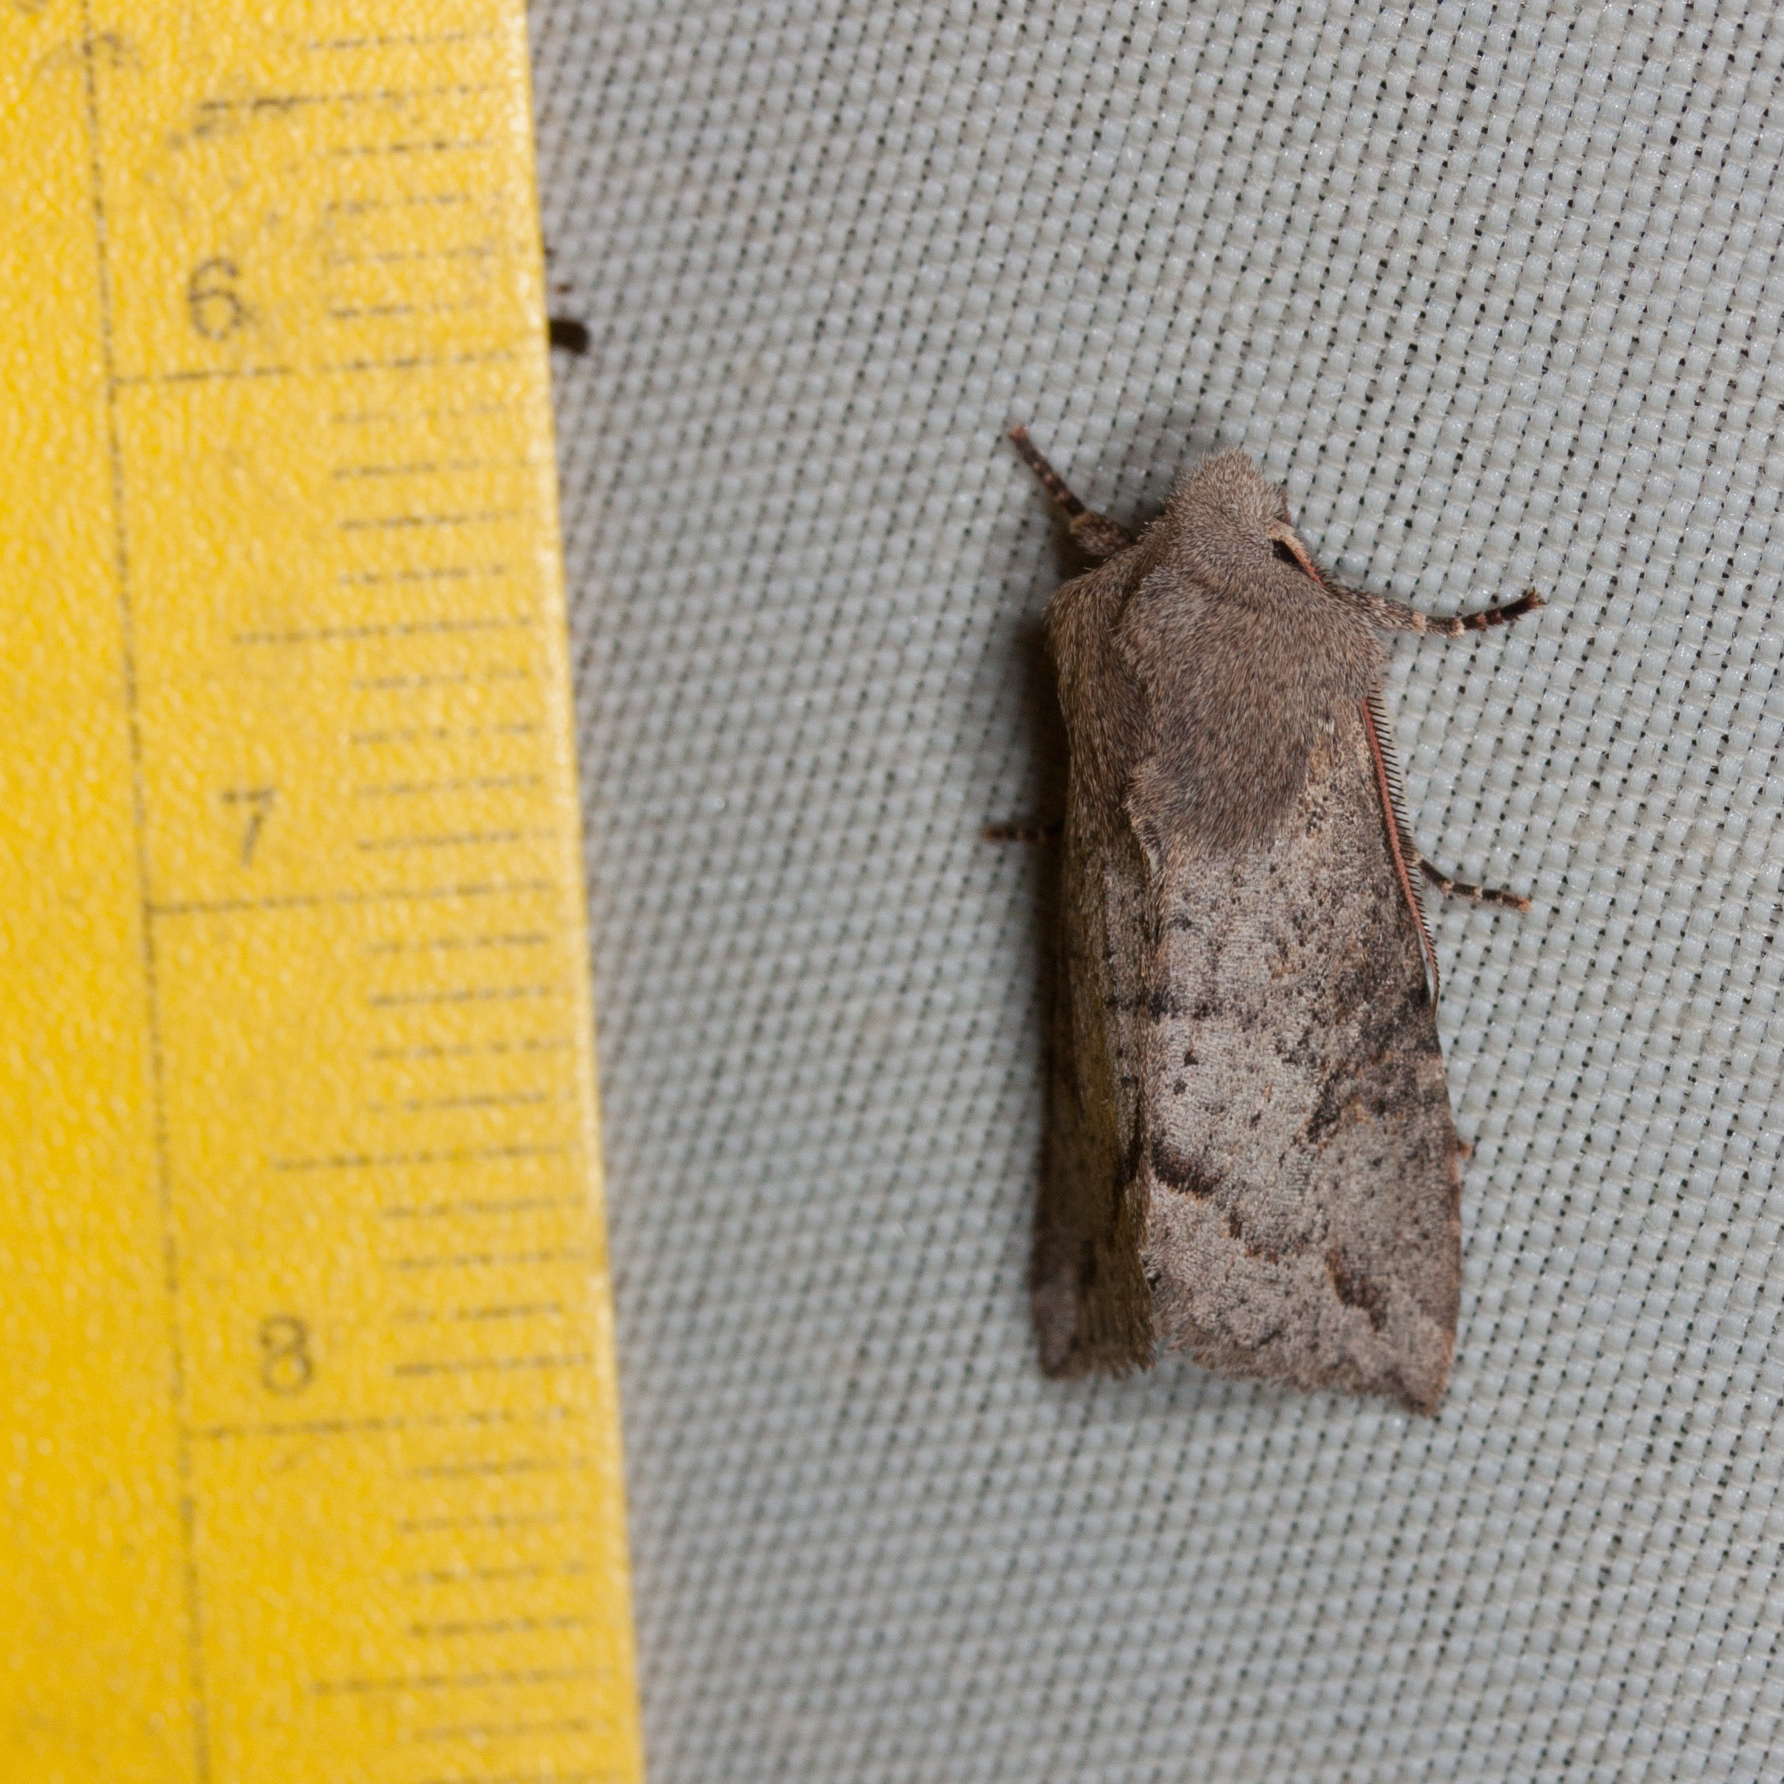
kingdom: Animalia
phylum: Arthropoda
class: Insecta
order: Lepidoptera
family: Noctuidae
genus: Orthosia
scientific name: Orthosia erythrolita
